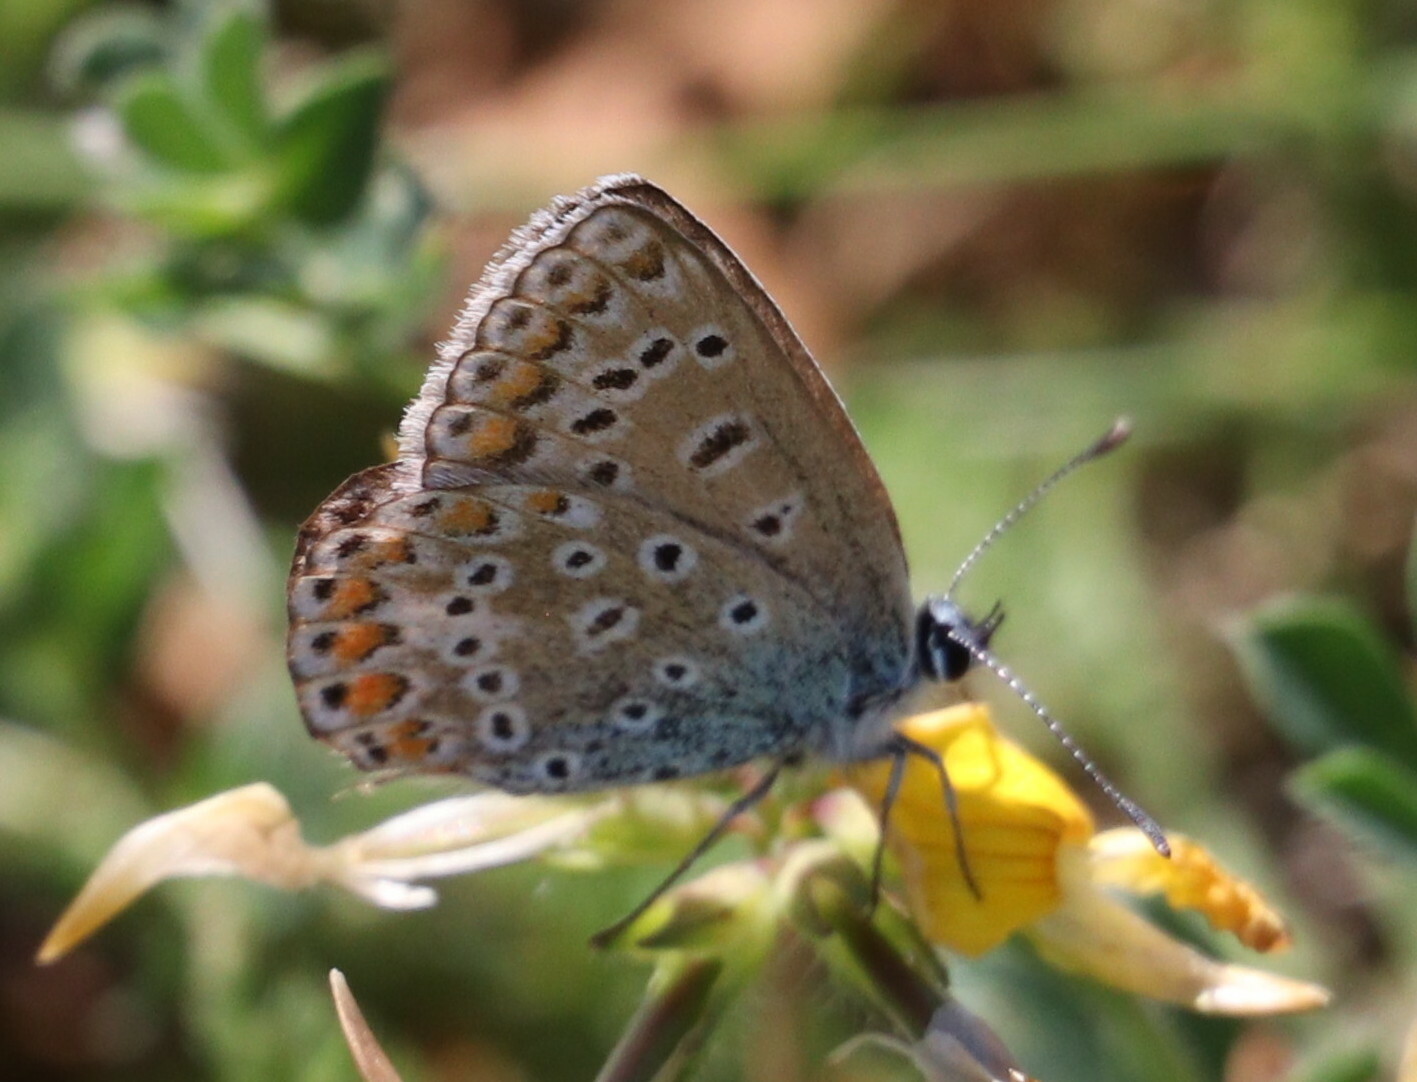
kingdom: Animalia
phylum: Arthropoda
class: Insecta
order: Lepidoptera
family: Lycaenidae
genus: Polyommatus
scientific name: Polyommatus icarus
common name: Common blue
